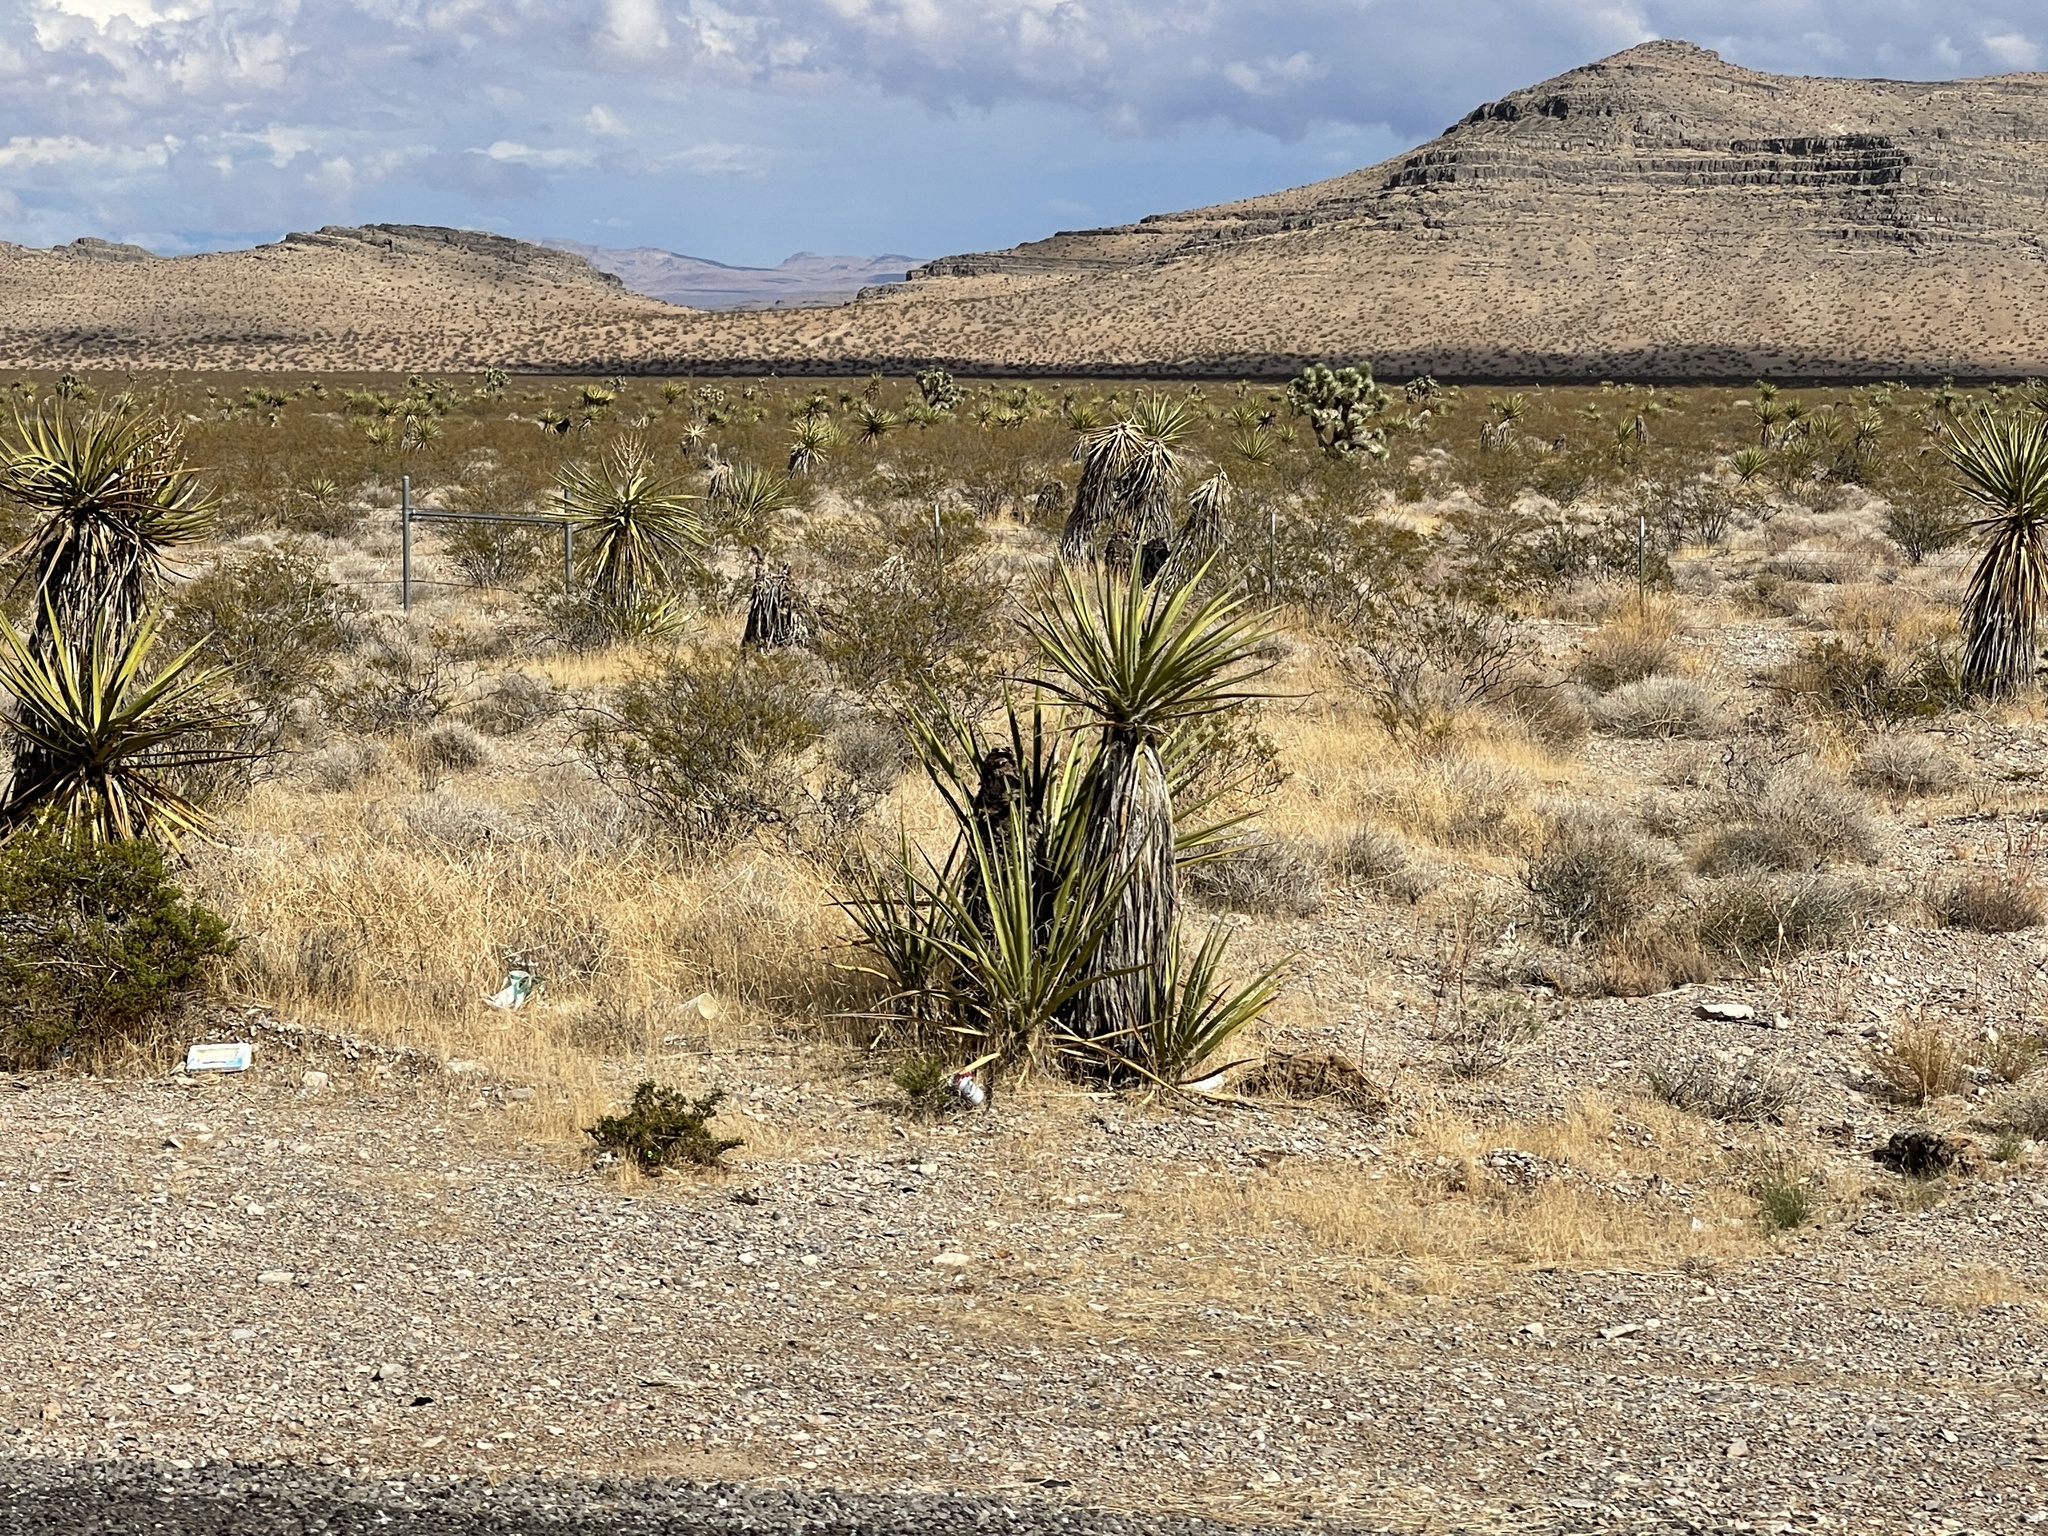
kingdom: Plantae
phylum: Tracheophyta
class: Liliopsida
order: Asparagales
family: Asparagaceae
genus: Yucca
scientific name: Yucca schidigera
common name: Mojave yucca
